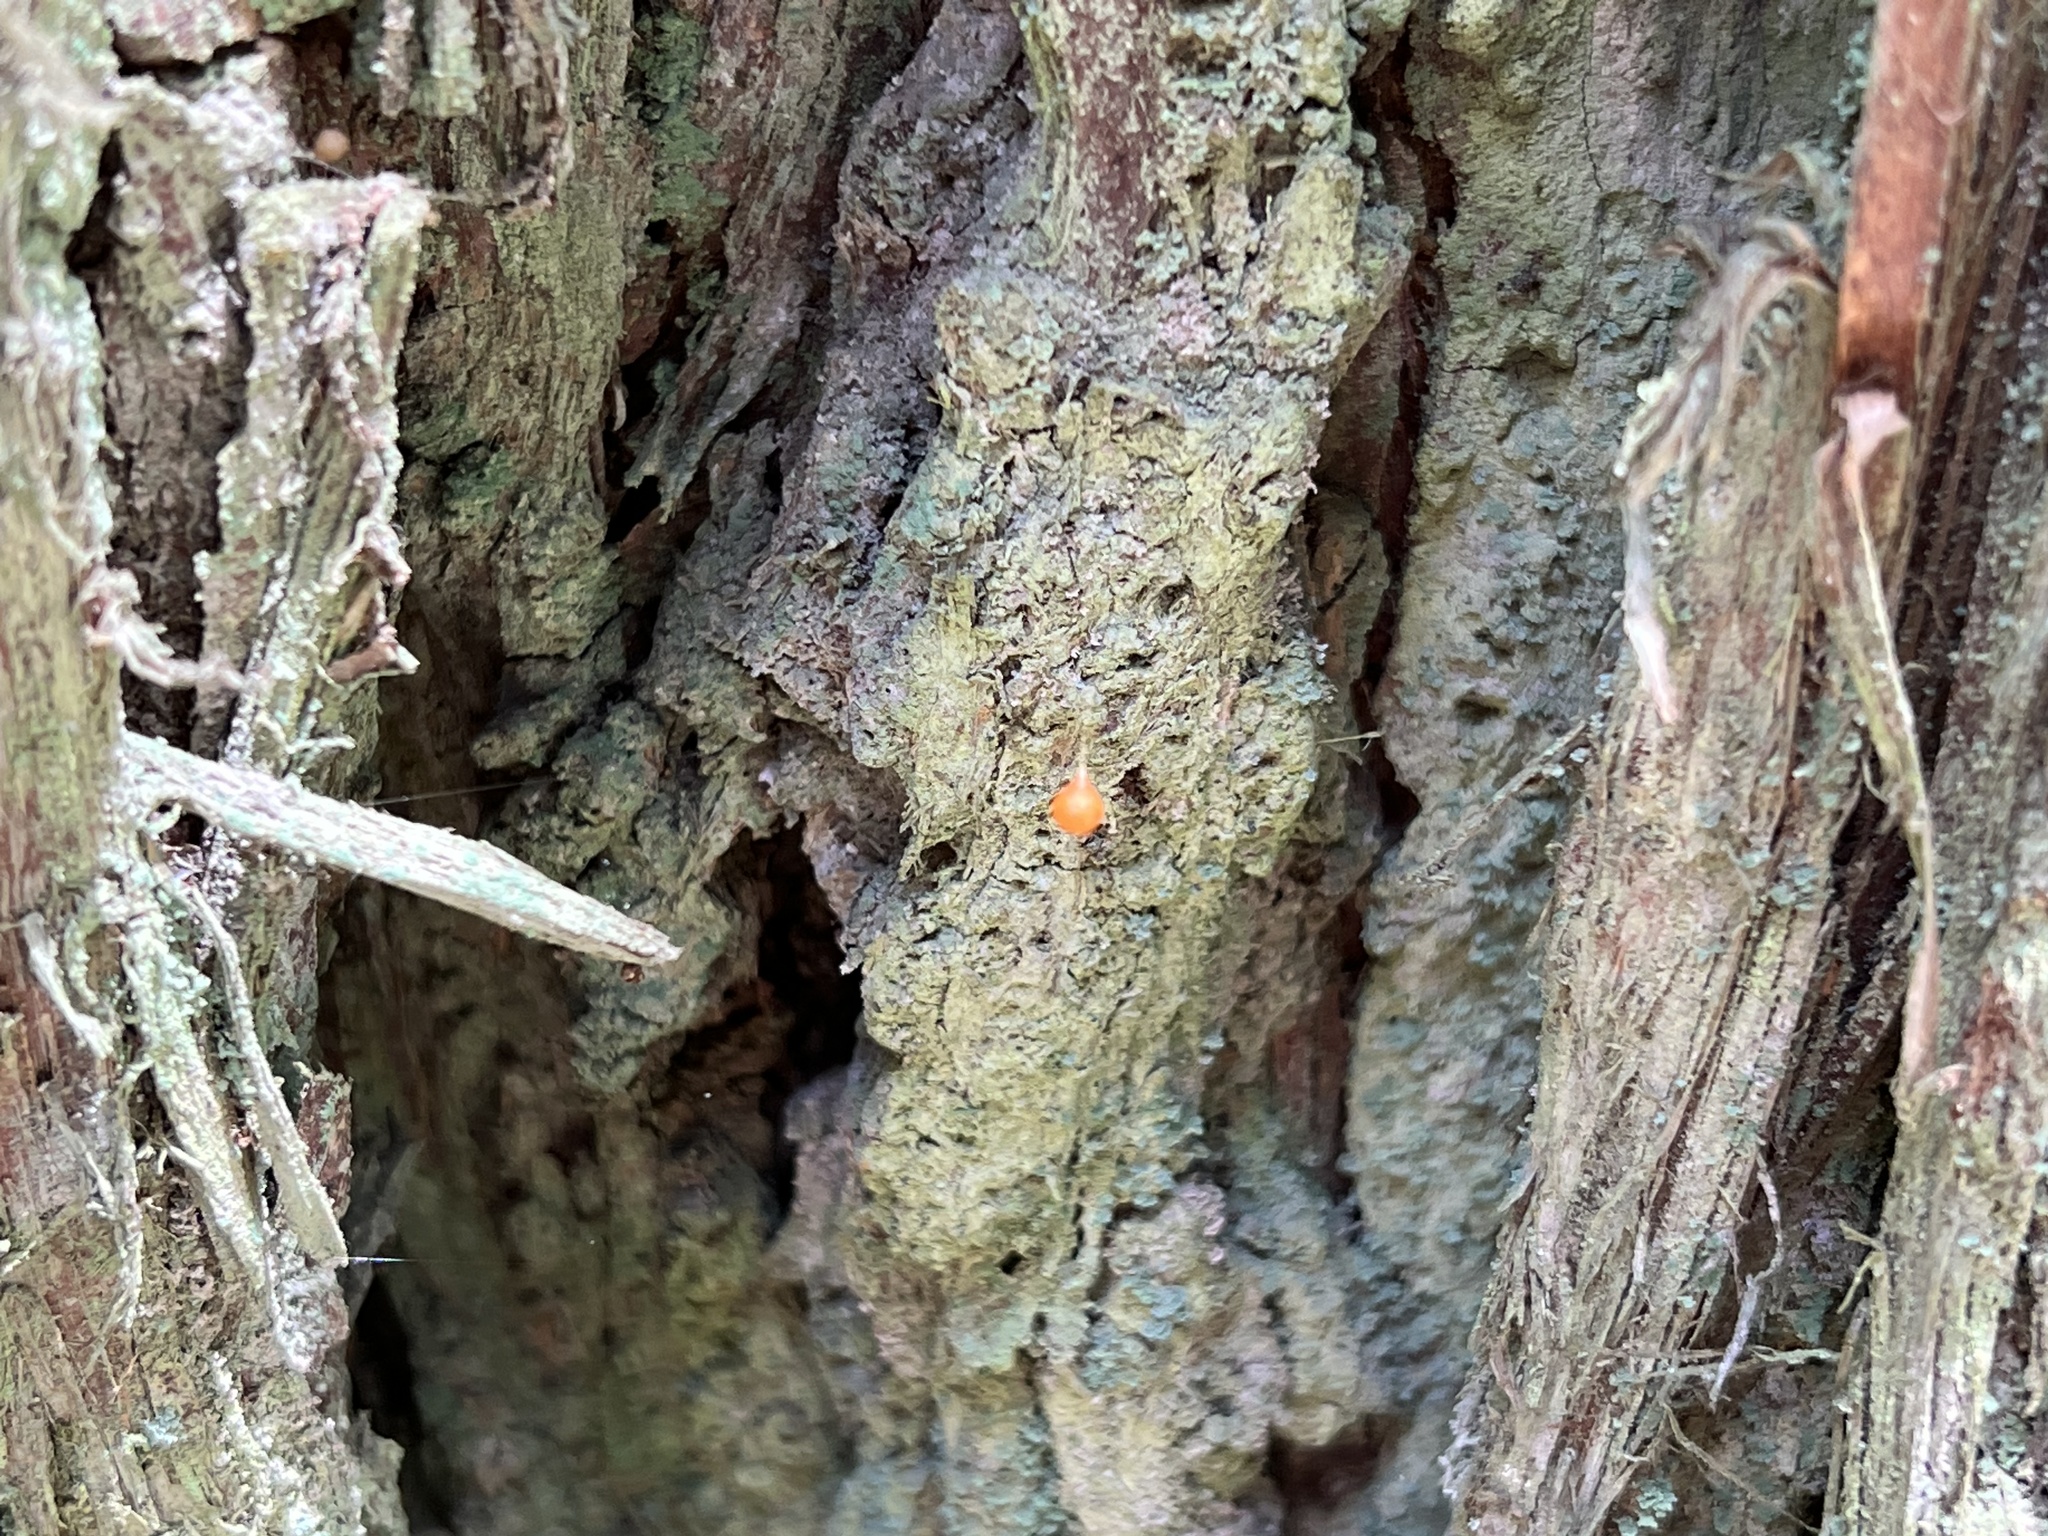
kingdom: Animalia
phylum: Arthropoda
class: Arachnida
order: Araneae
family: Theridiosomatidae
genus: Theridiosoma
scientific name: Theridiosoma gemmosum
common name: Ray spider
